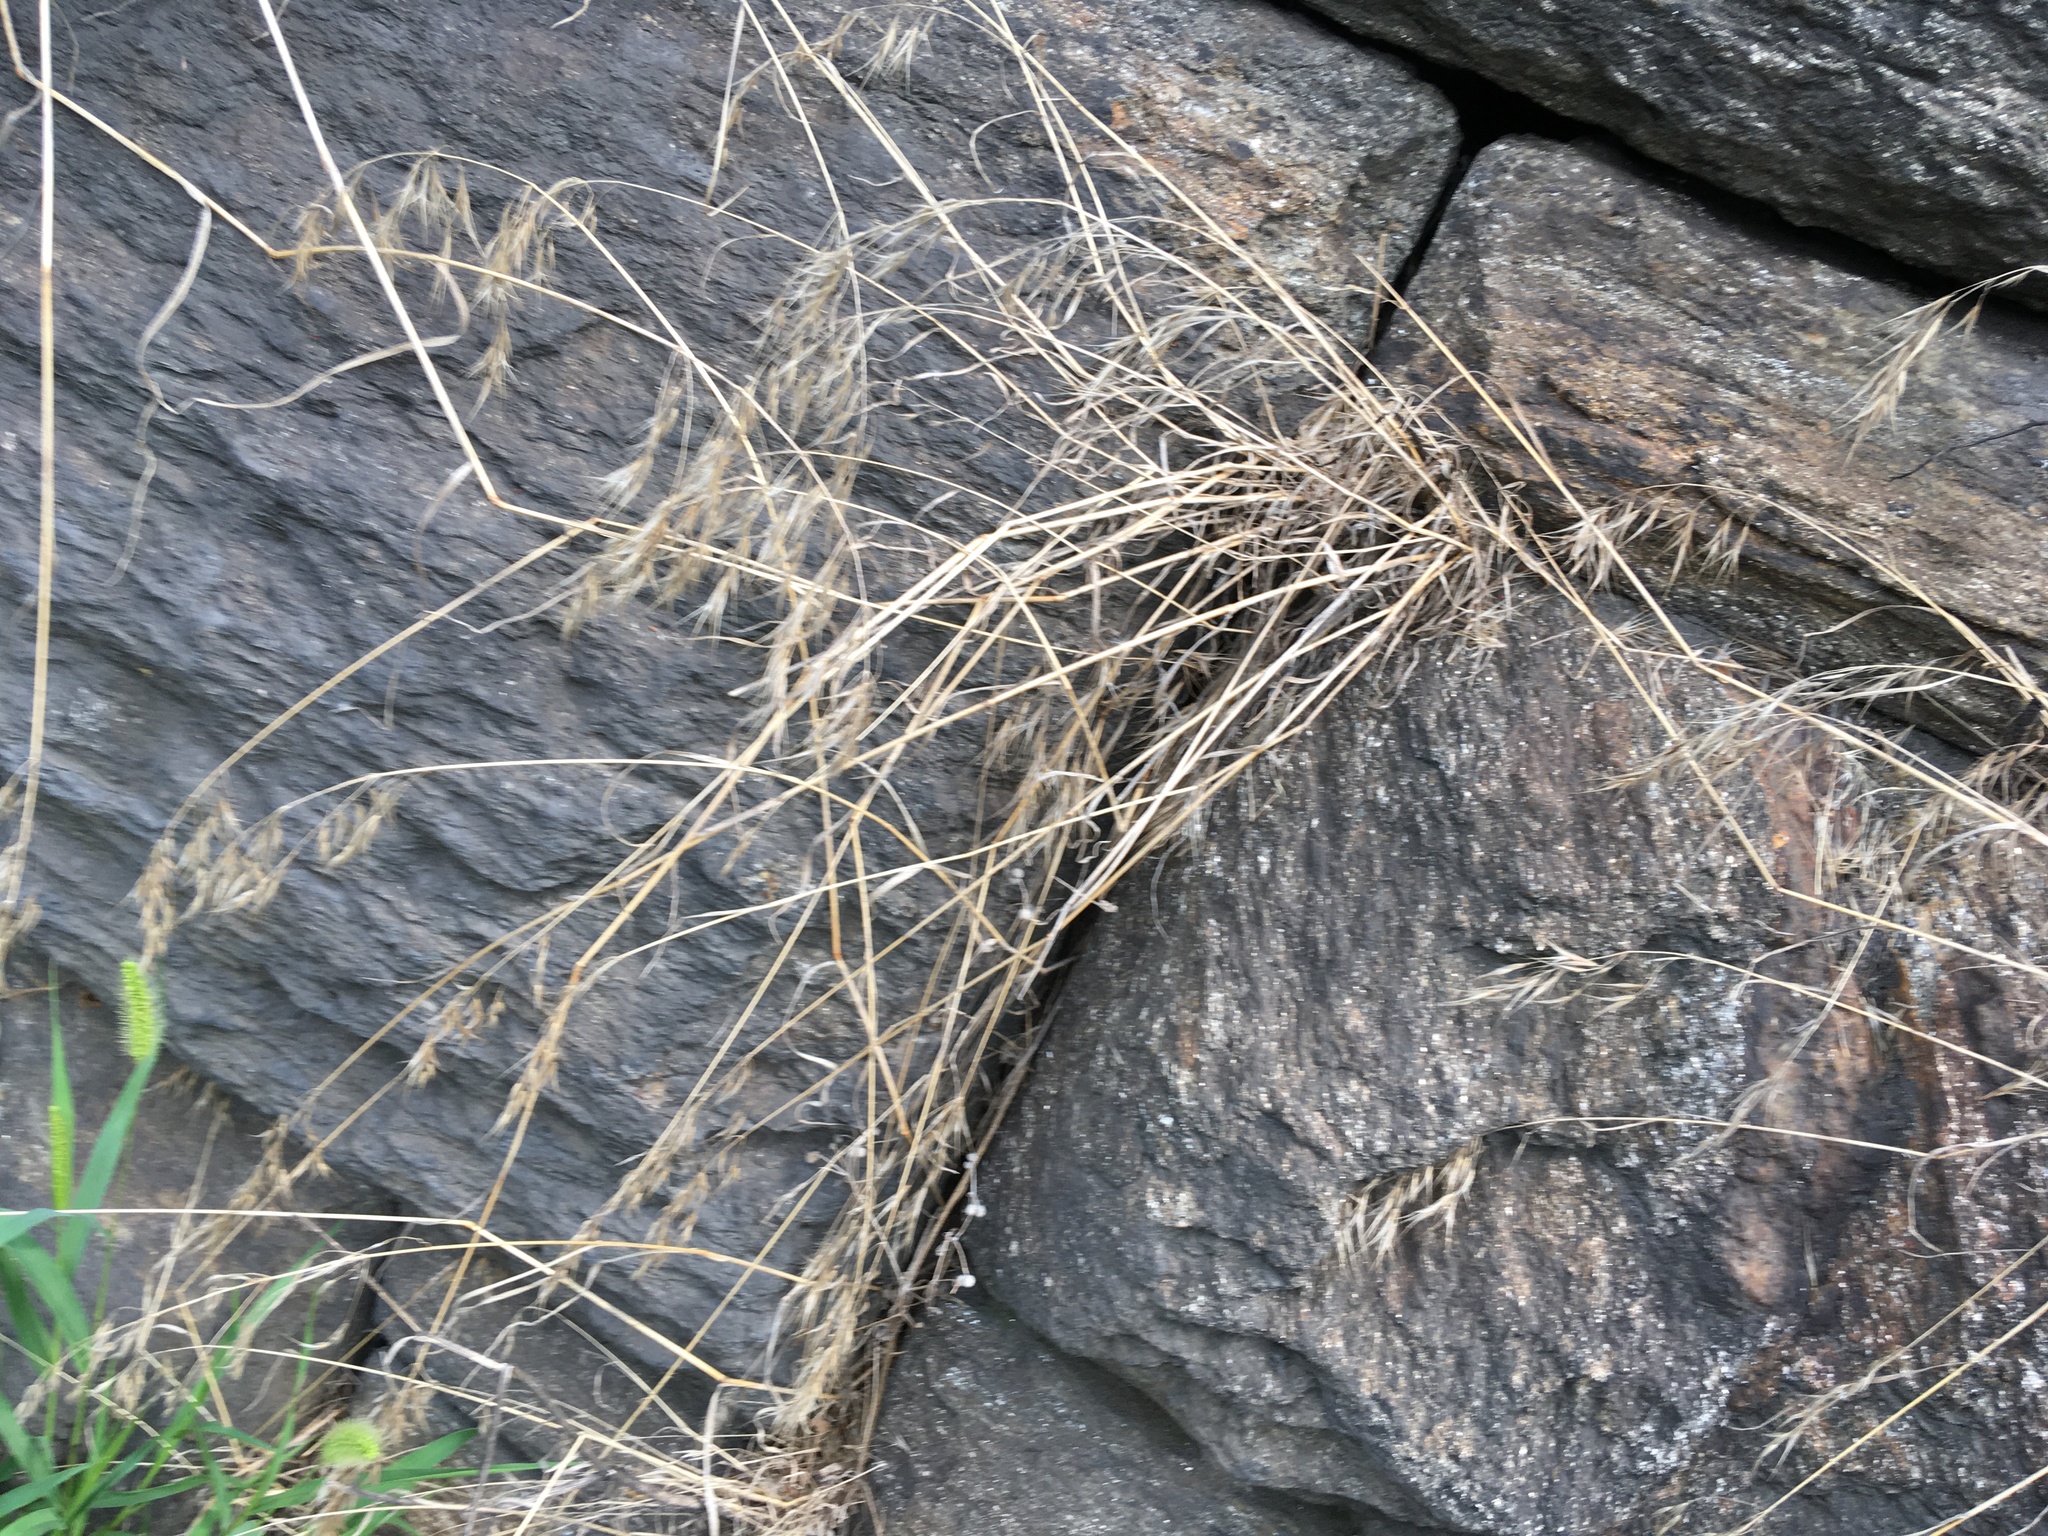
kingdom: Plantae
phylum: Tracheophyta
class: Liliopsida
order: Poales
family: Poaceae
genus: Bromus
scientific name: Bromus tectorum
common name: Cheatgrass
